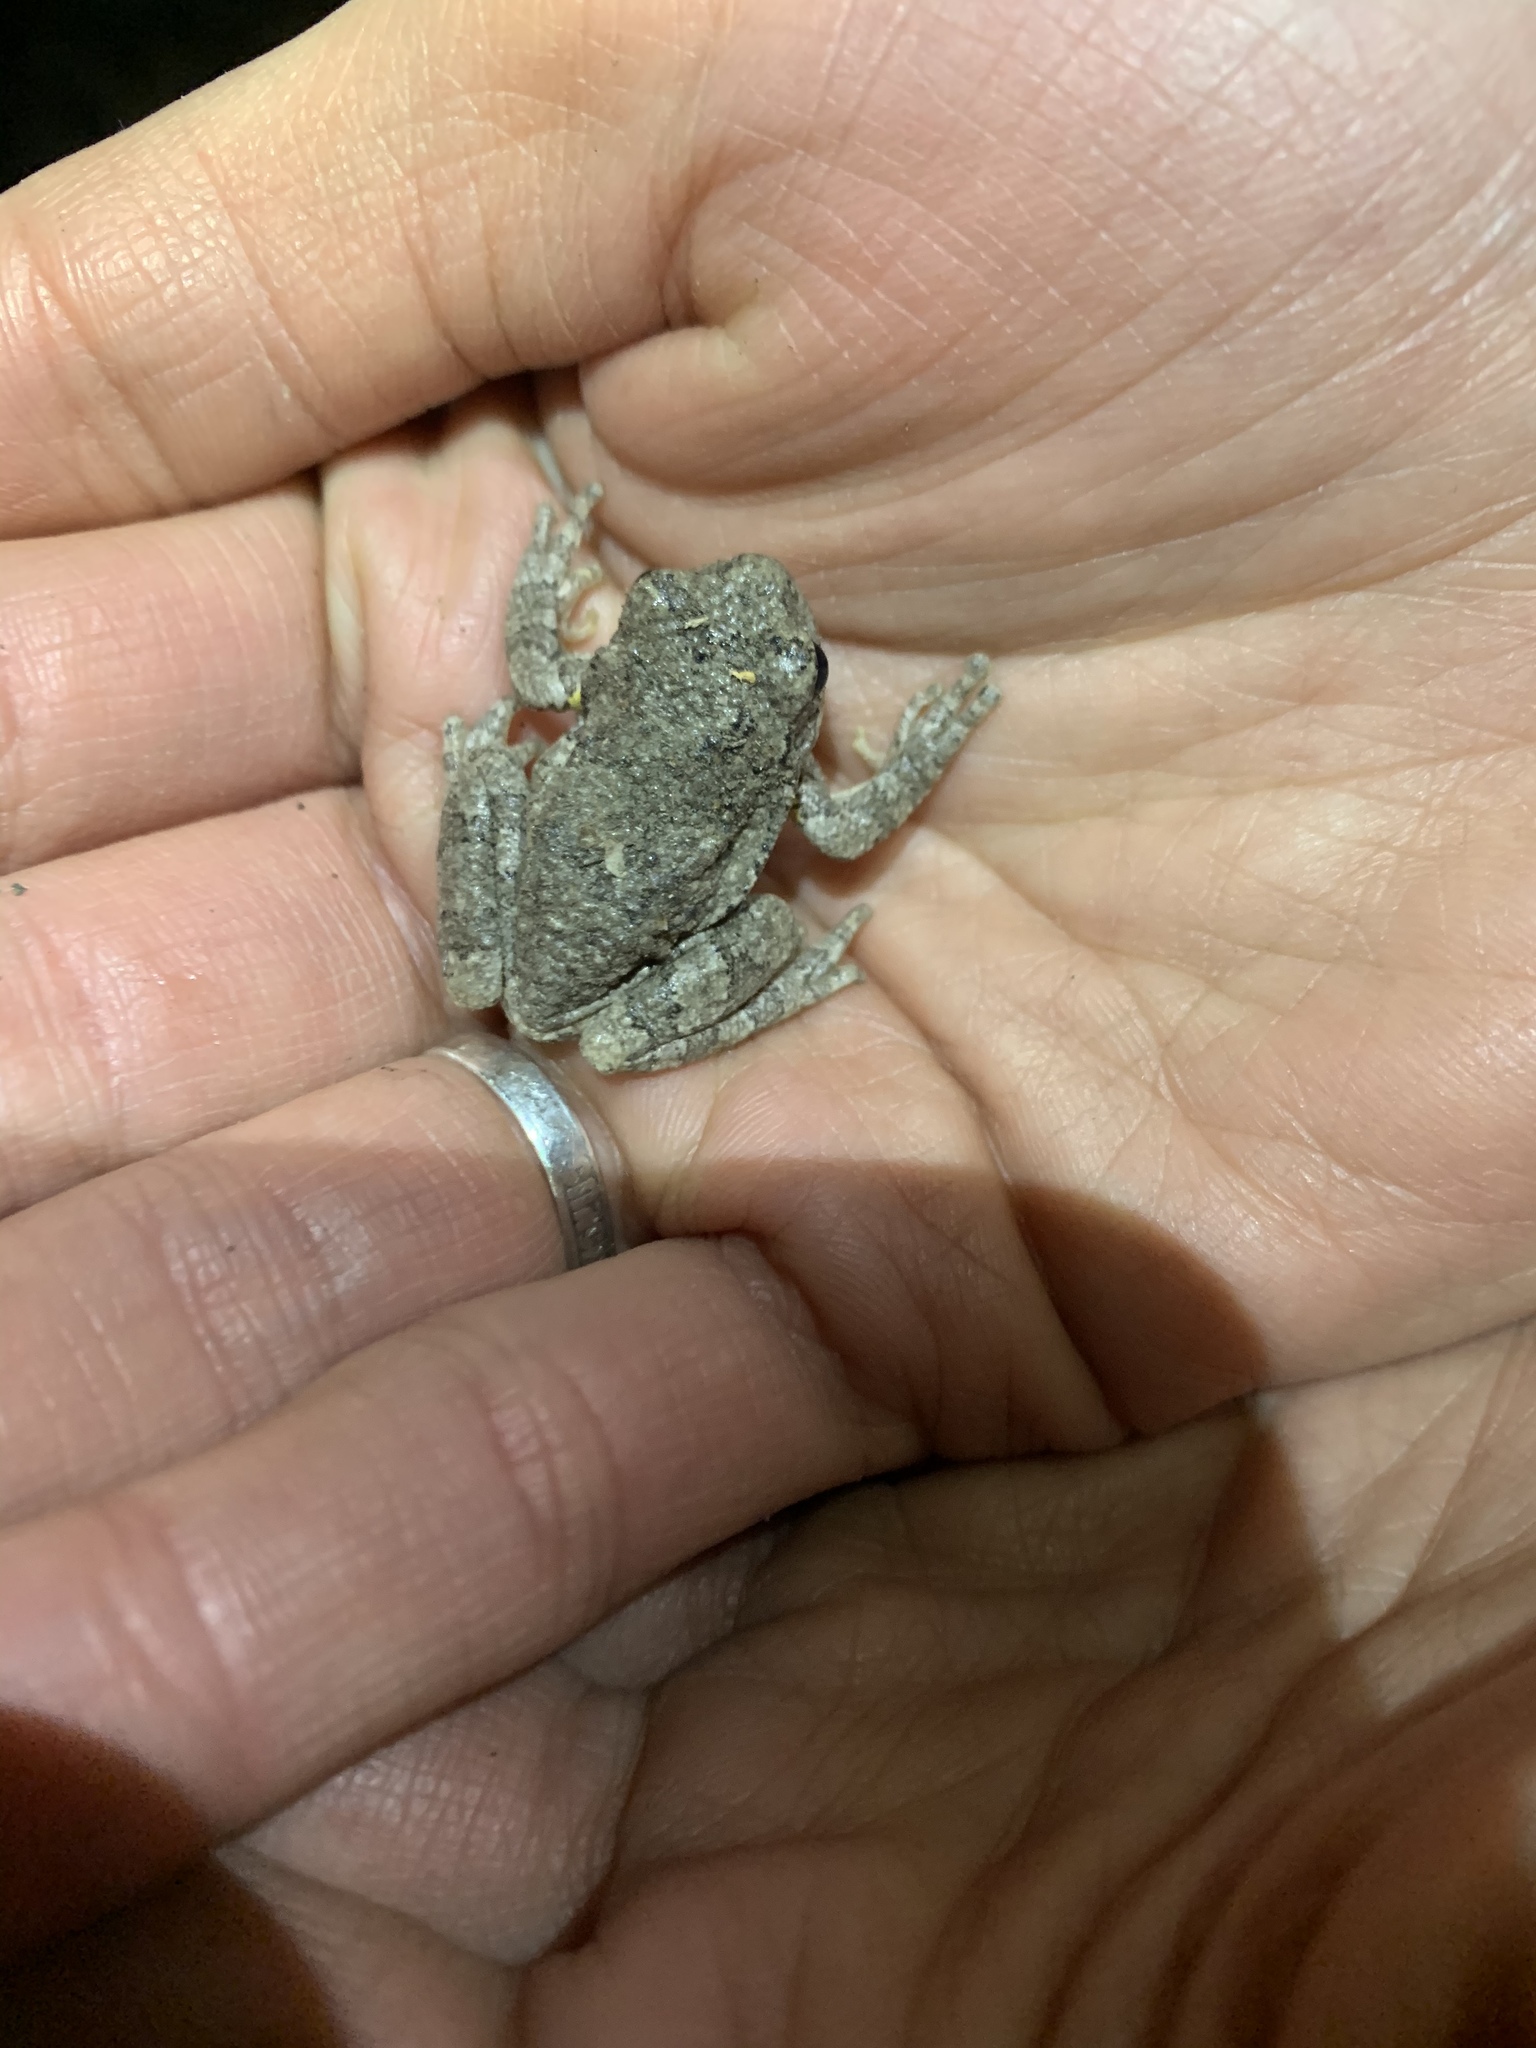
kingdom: Animalia
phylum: Chordata
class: Amphibia
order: Anura
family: Hylidae
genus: Dryophytes
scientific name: Dryophytes versicolor
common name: Gray treefrog
